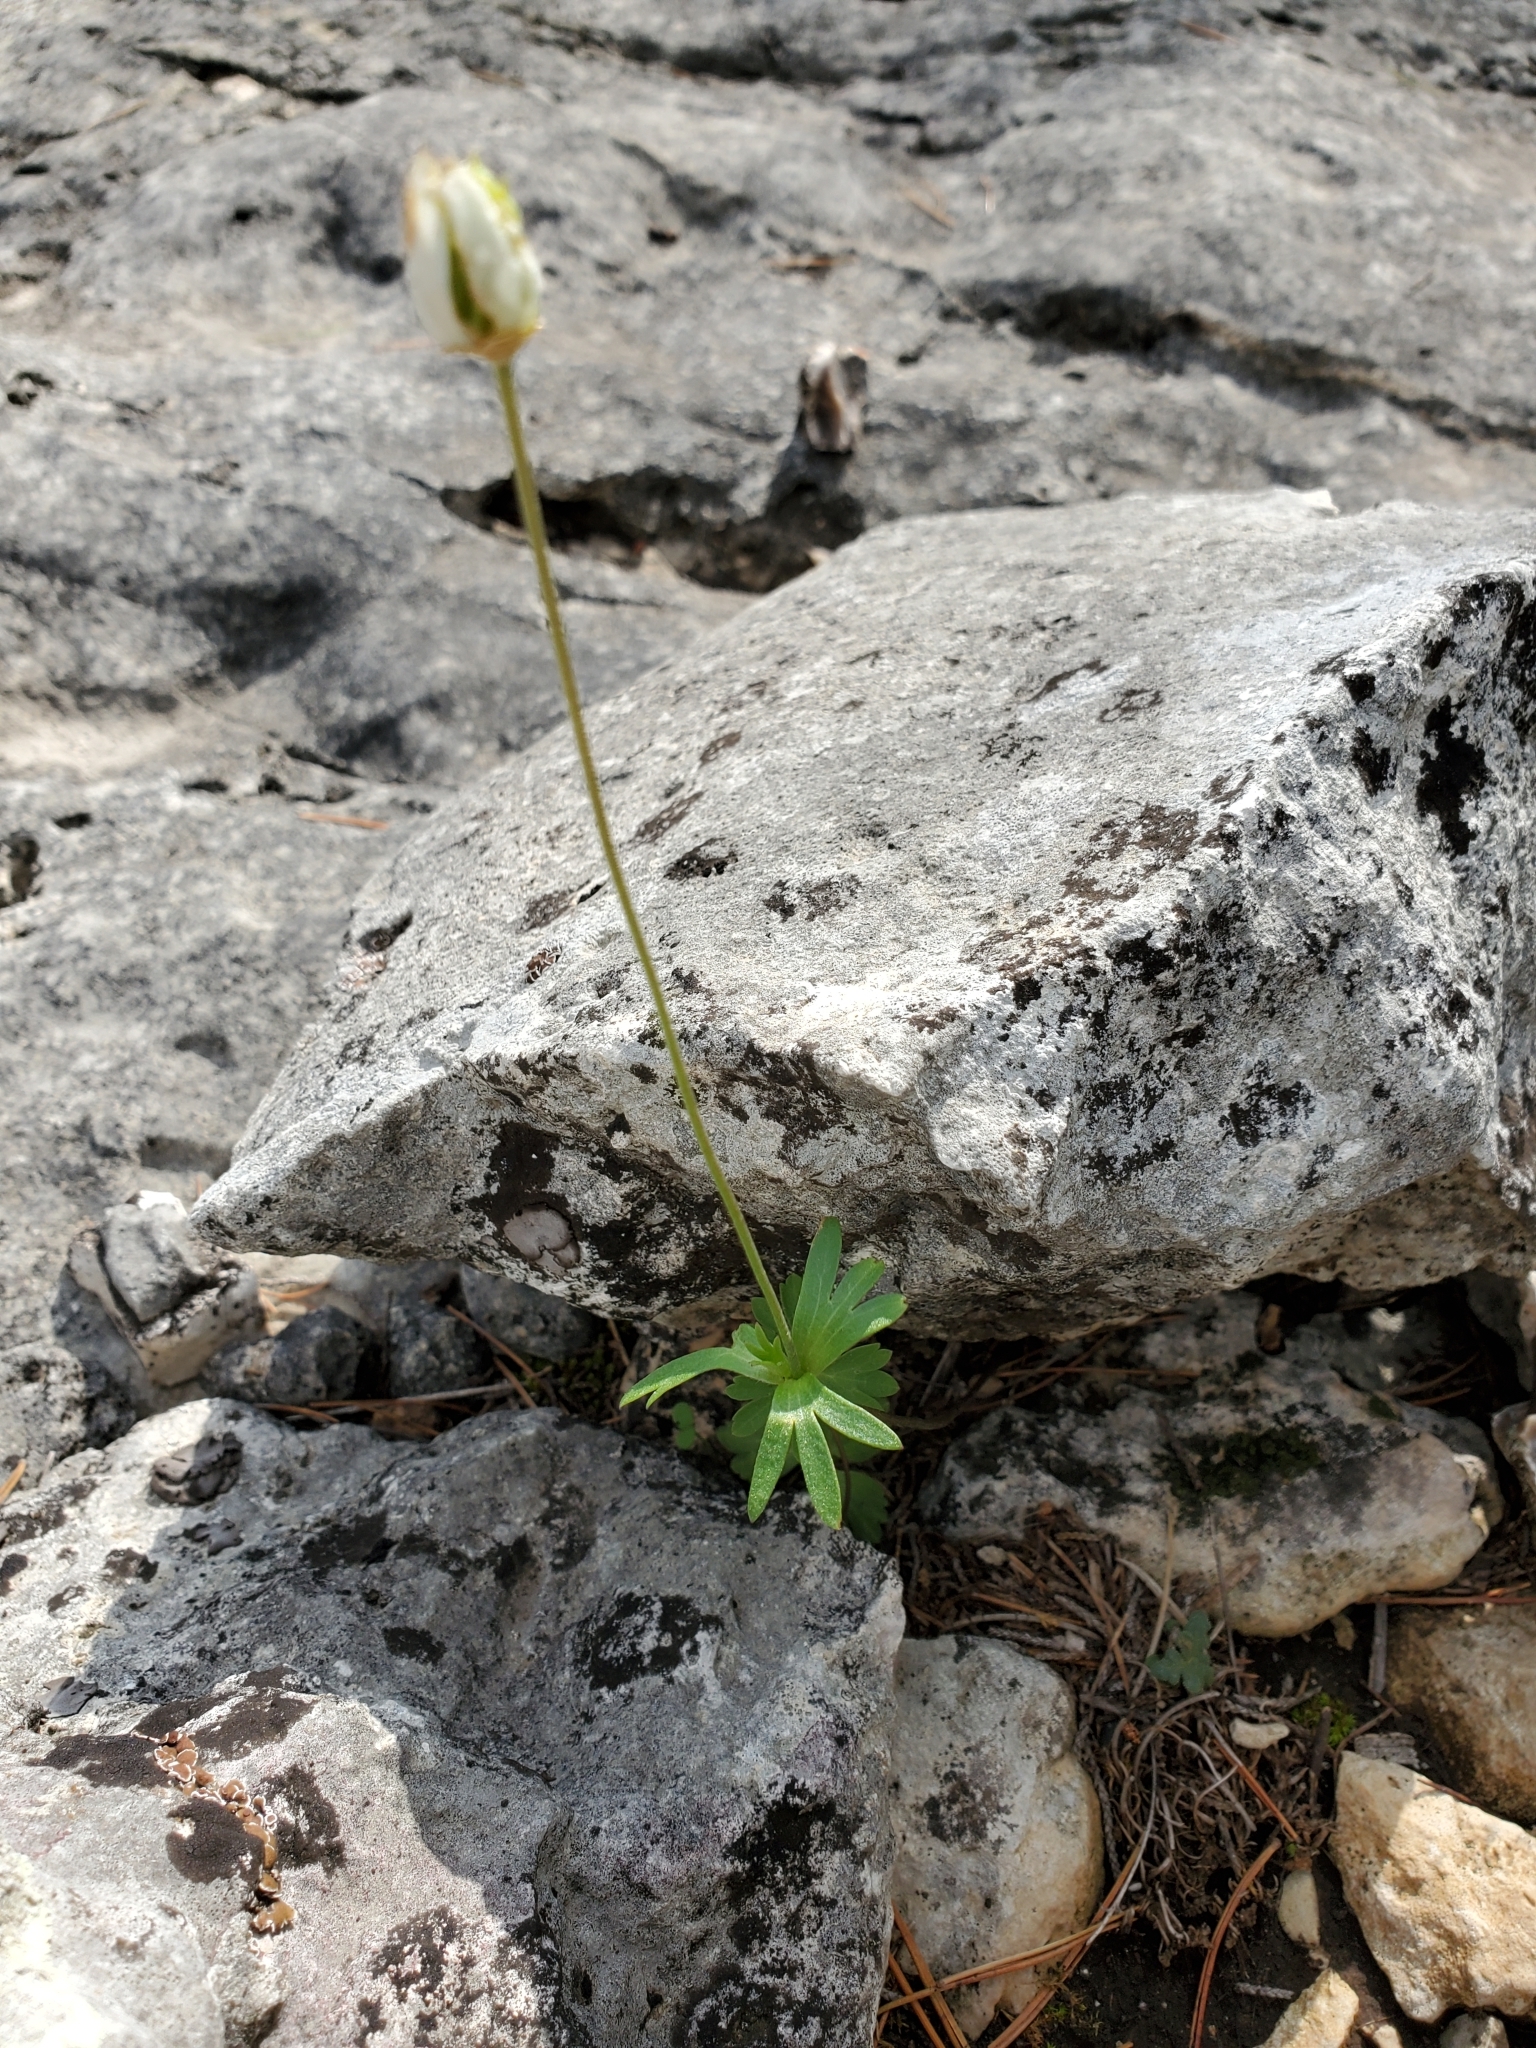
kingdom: Plantae
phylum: Tracheophyta
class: Magnoliopsida
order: Ranunculales
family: Ranunculaceae
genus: Anemone
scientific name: Anemone edwardsiana
